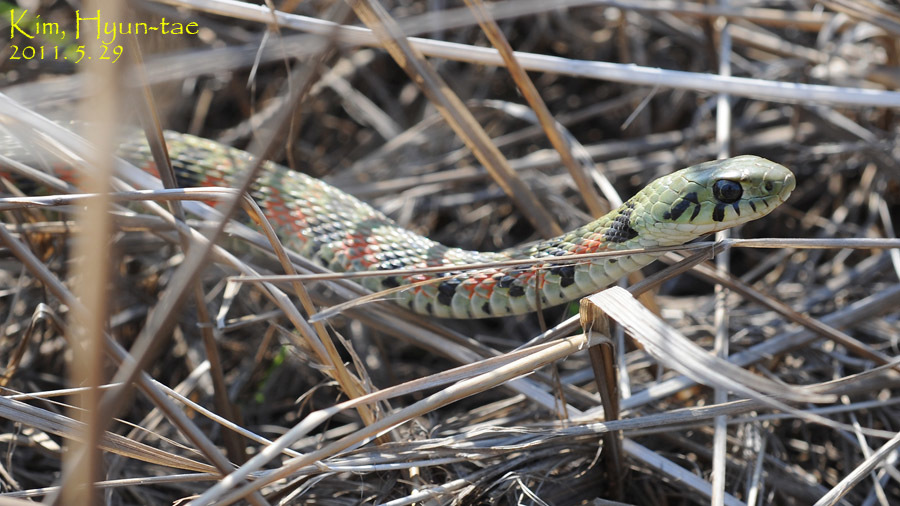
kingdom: Animalia
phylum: Chordata
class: Squamata
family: Colubridae
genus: Rhabdophis
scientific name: Rhabdophis tigrinus
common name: Tiger keelback
